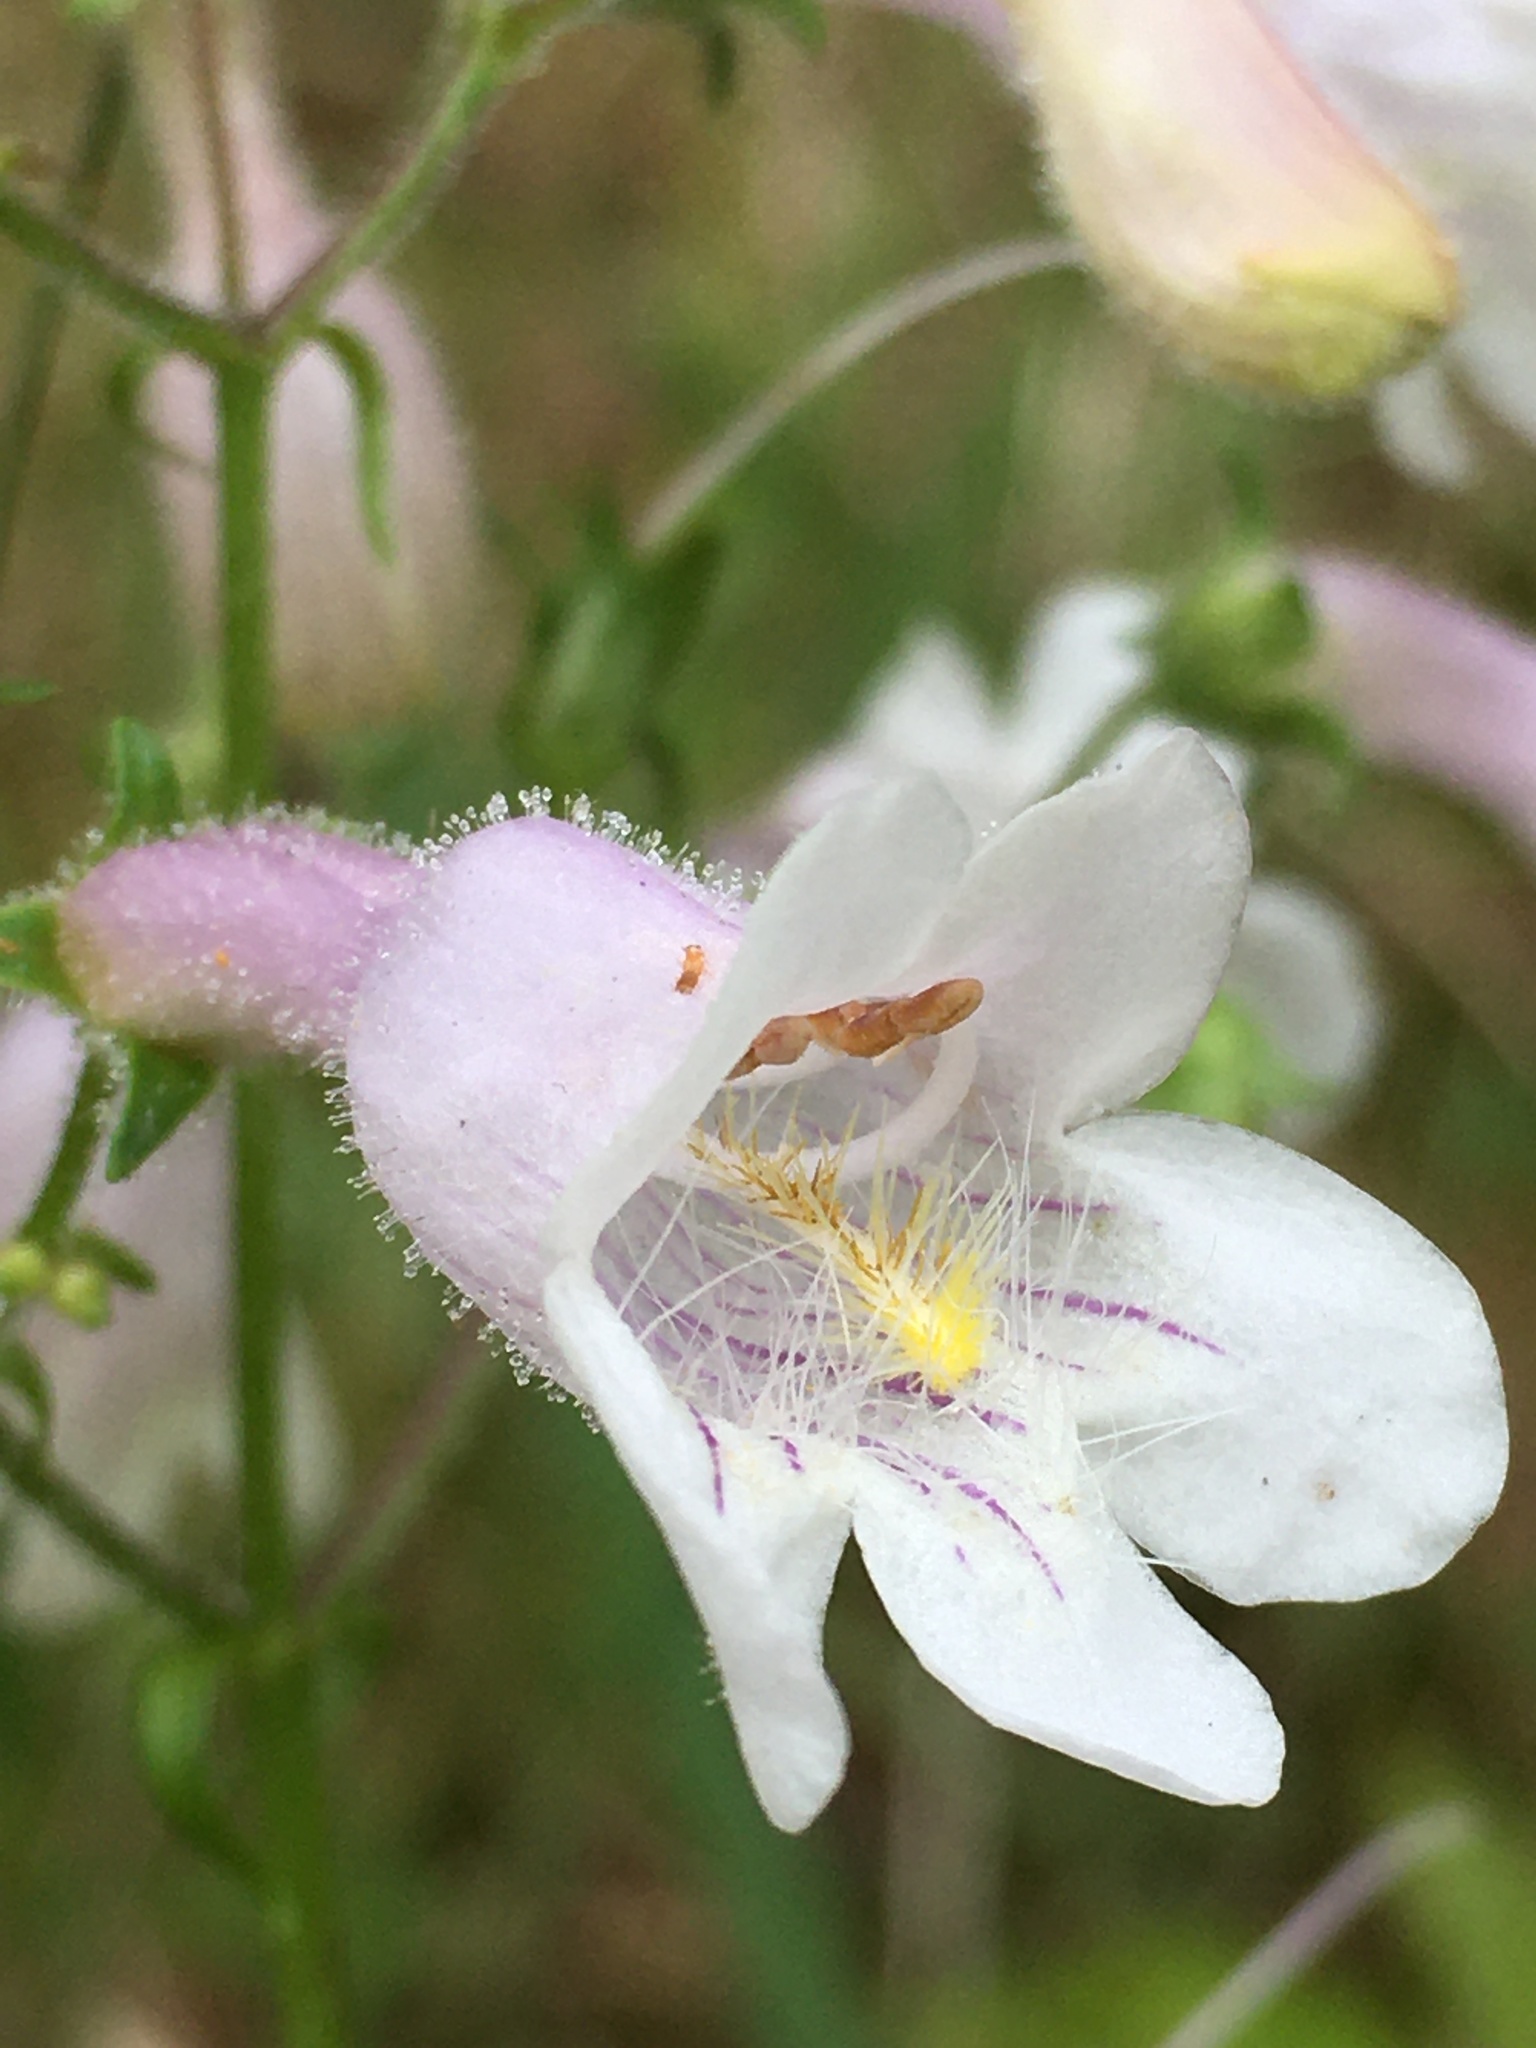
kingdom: Plantae
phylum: Tracheophyta
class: Magnoliopsida
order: Lamiales
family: Plantaginaceae
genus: Penstemon
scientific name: Penstemon laevigatus
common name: Eastern beardtongue
